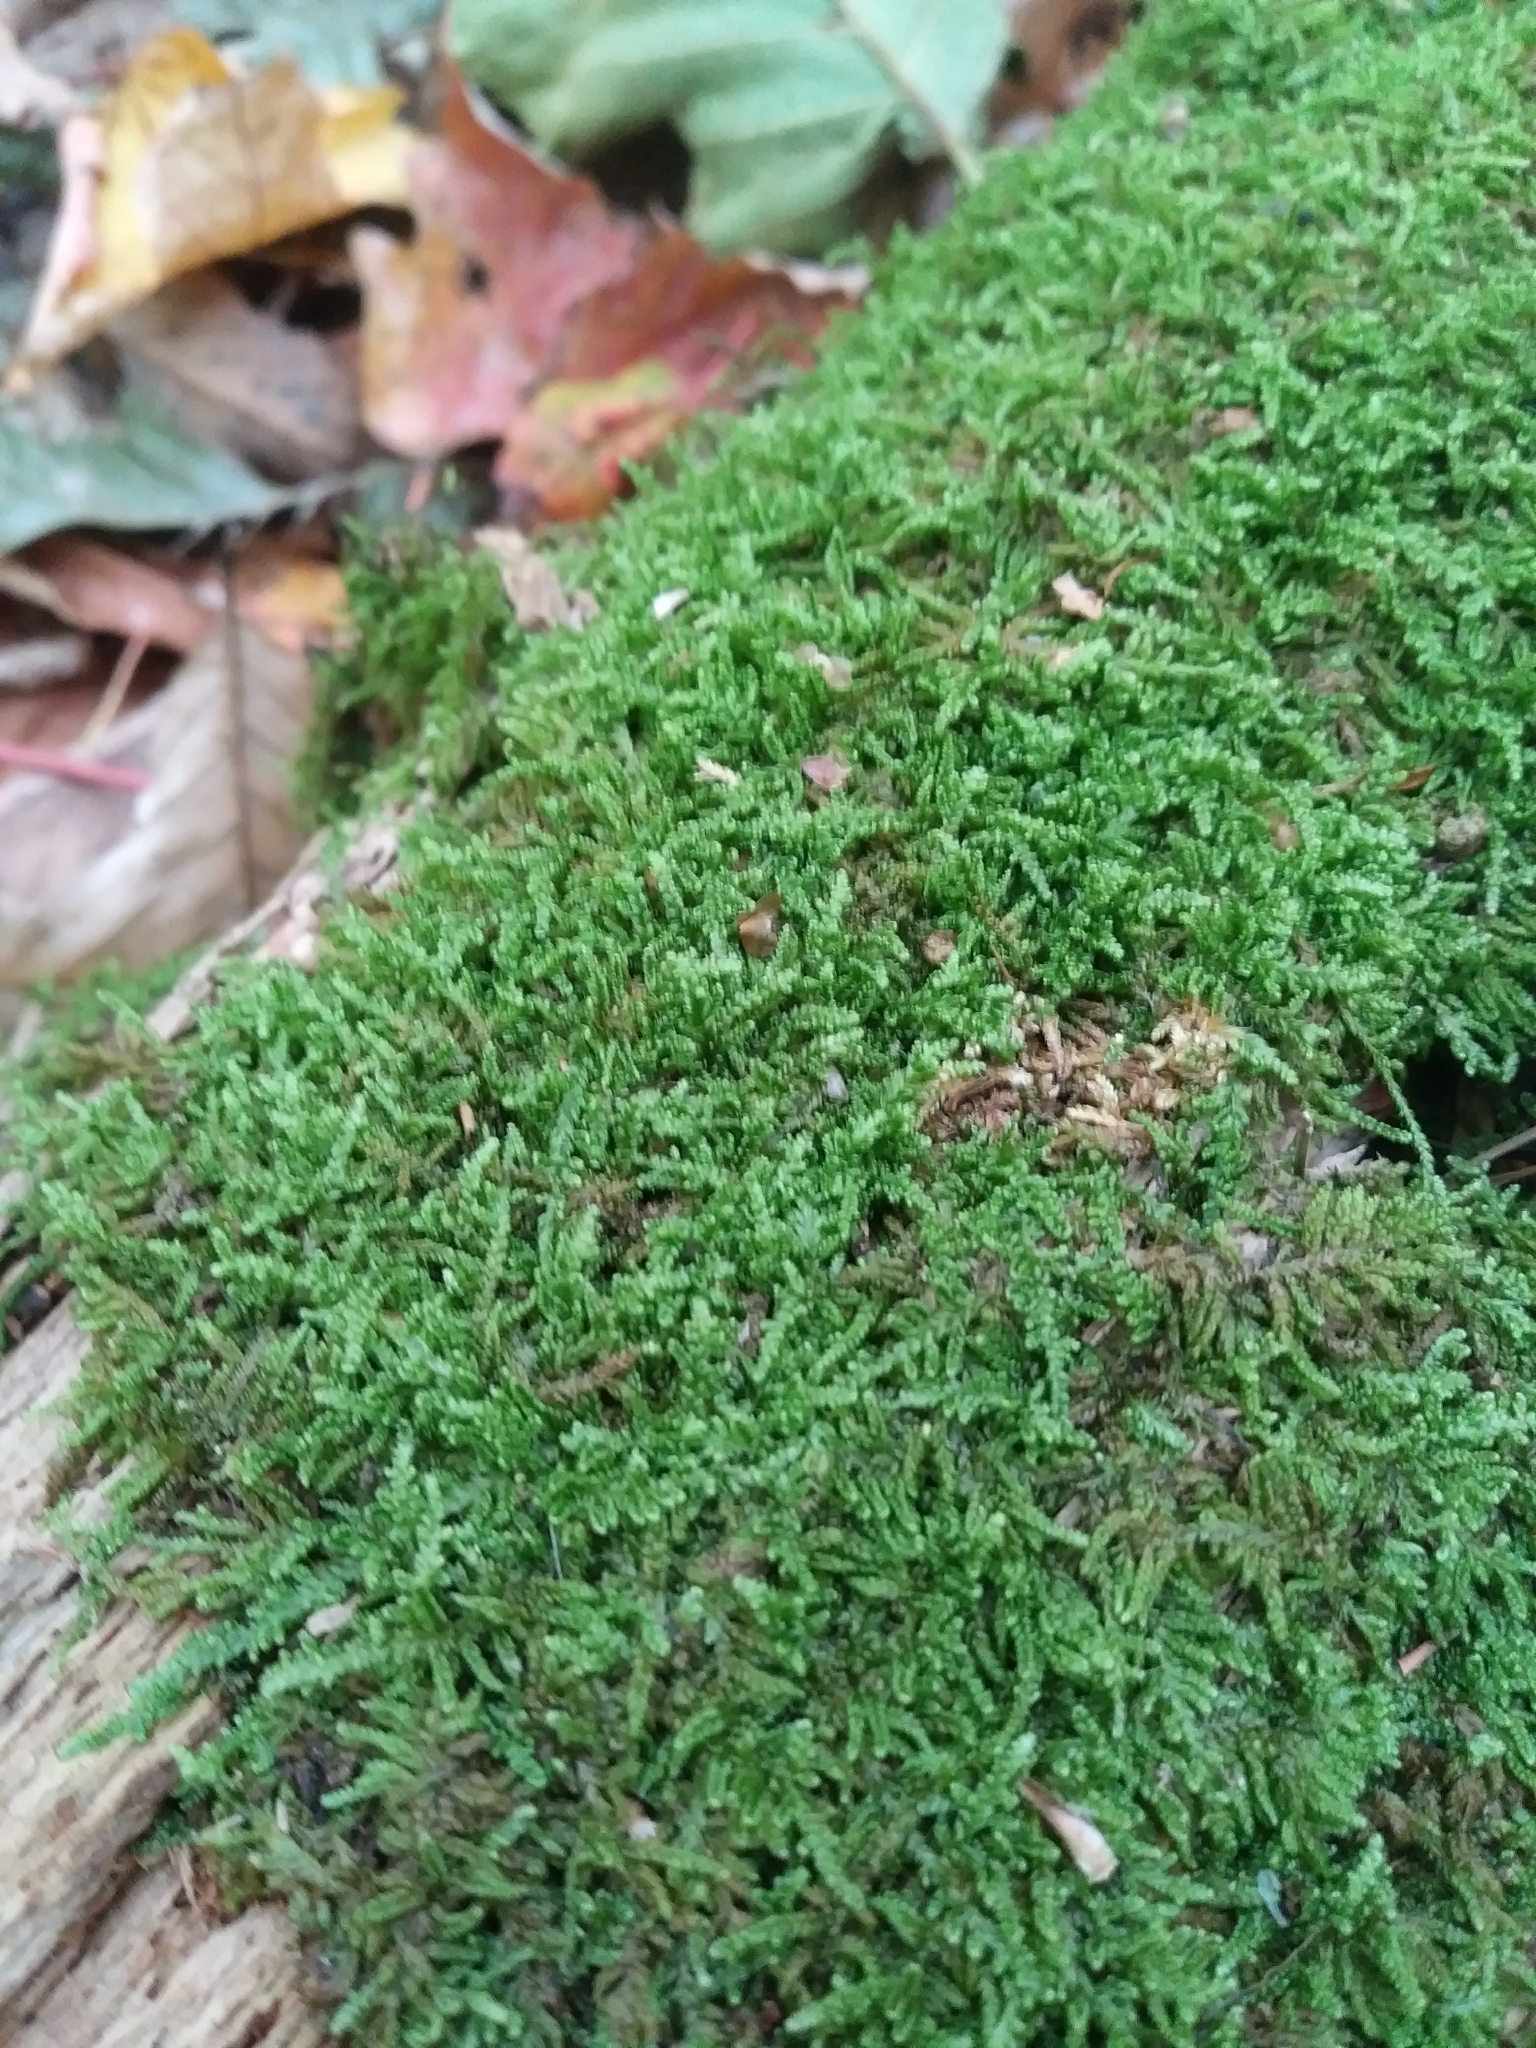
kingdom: Plantae
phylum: Bryophyta
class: Bryopsida
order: Hypnales
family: Callicladiaceae
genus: Callicladium
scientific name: Callicladium imponens
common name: Brocade moss
